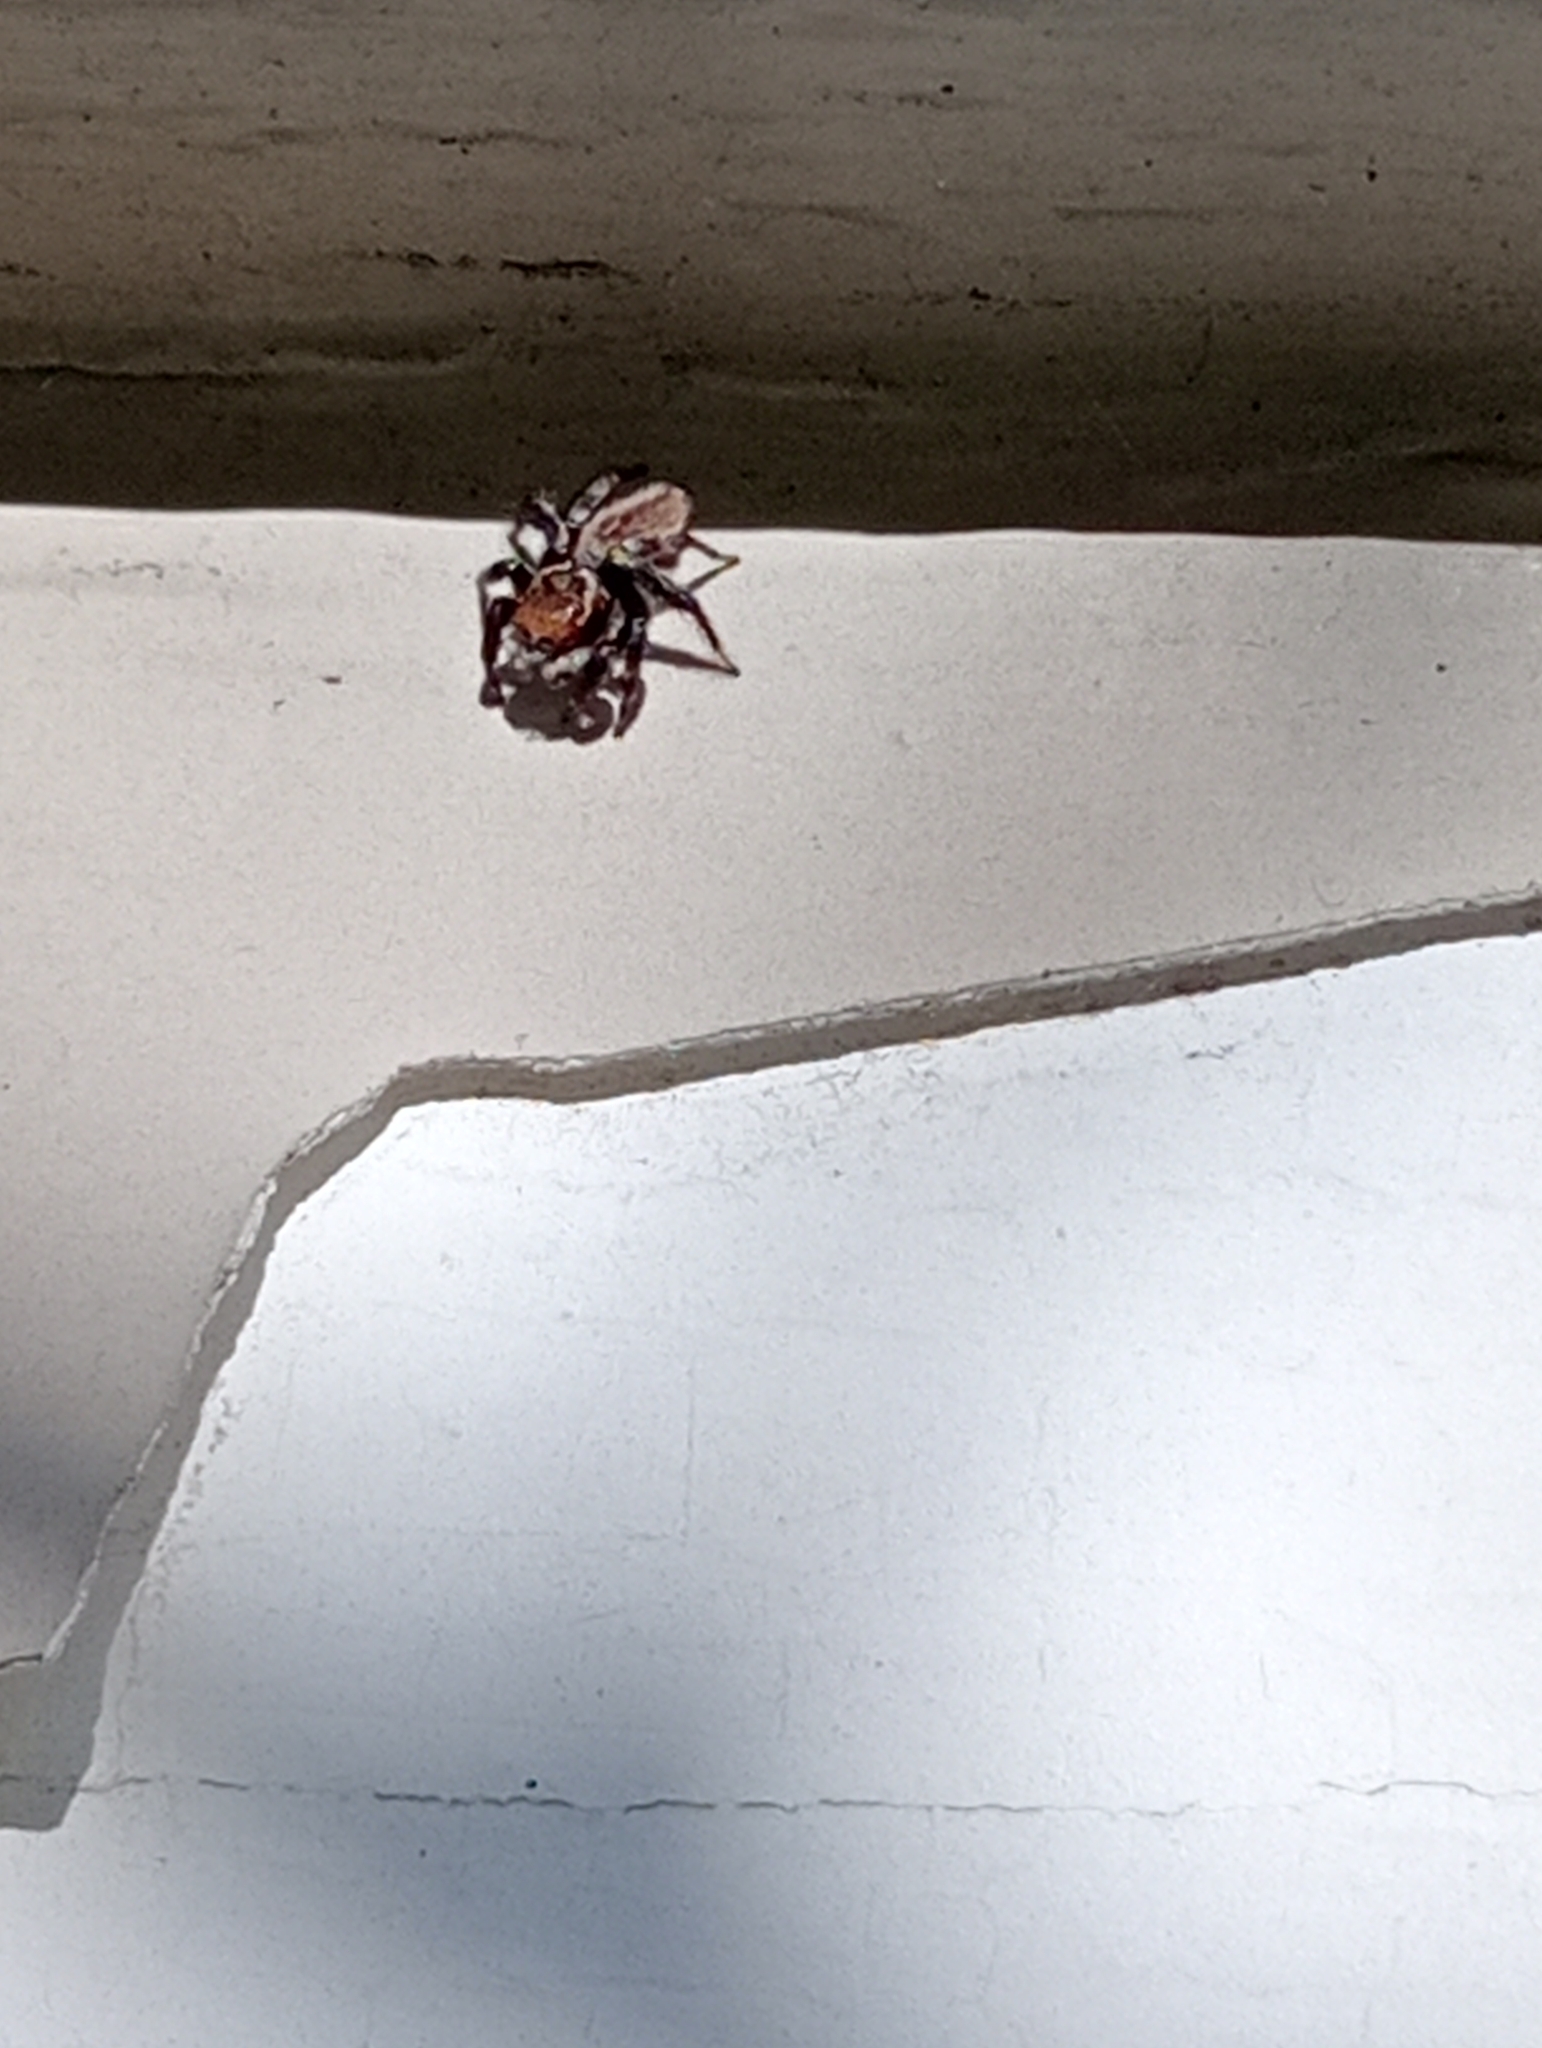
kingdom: Animalia
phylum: Arthropoda
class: Arachnida
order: Araneae
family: Salticidae
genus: Maratus
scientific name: Maratus griseus
